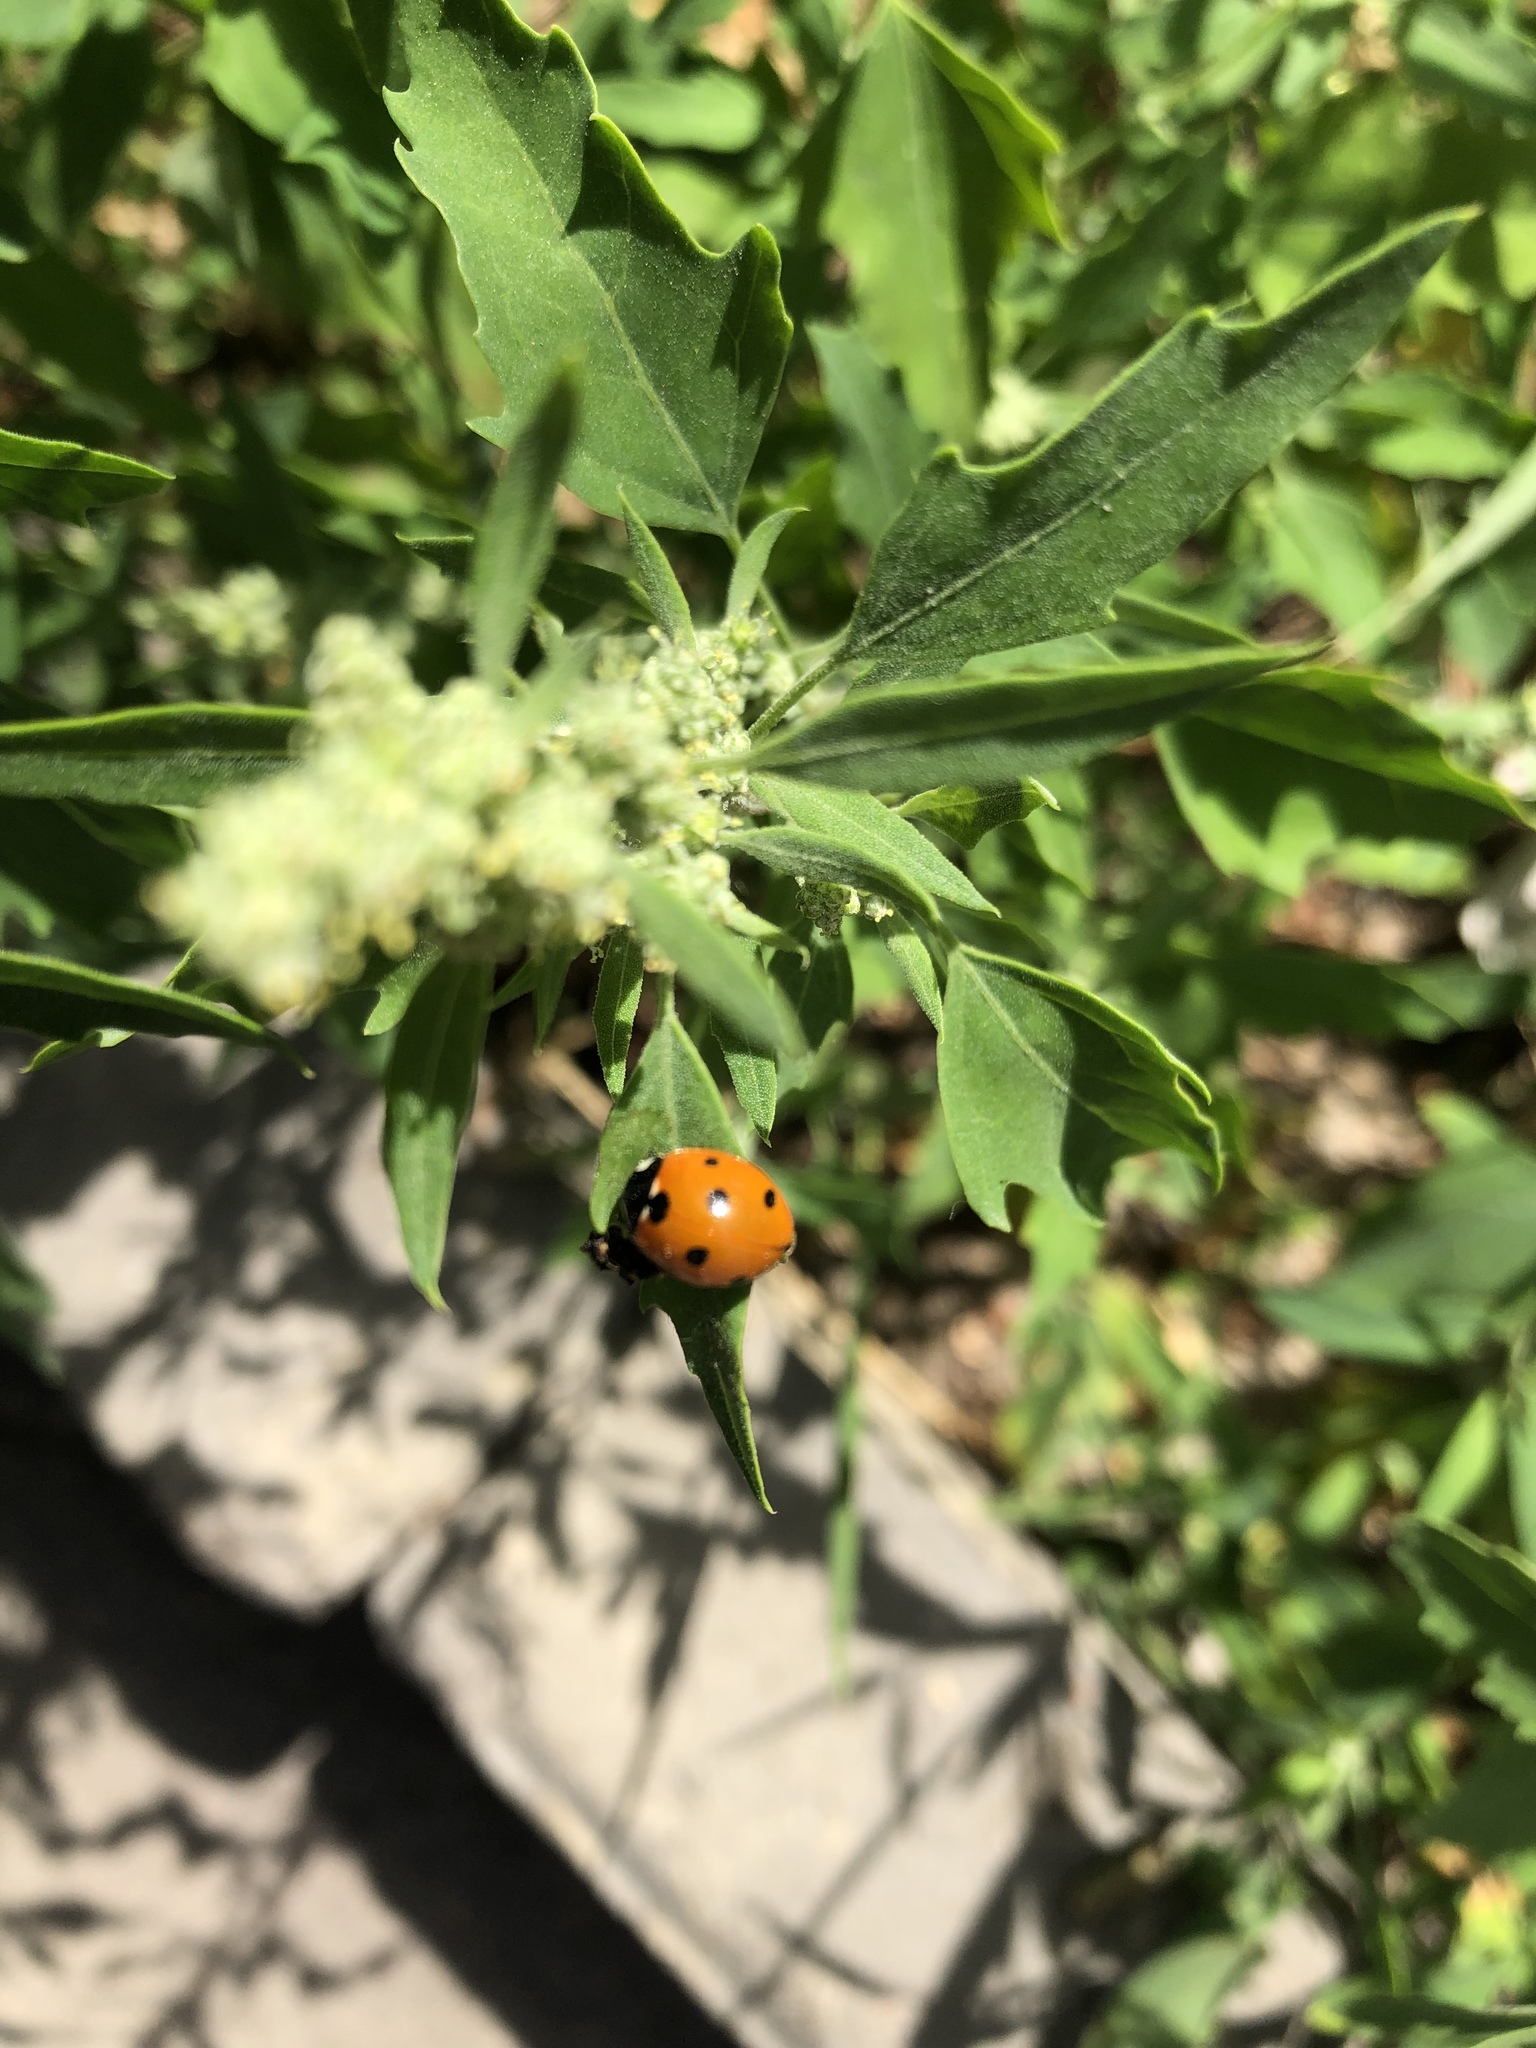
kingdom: Animalia
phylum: Arthropoda
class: Insecta
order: Coleoptera
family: Coccinellidae
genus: Coccinella
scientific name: Coccinella septempunctata
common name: Sevenspotted lady beetle
